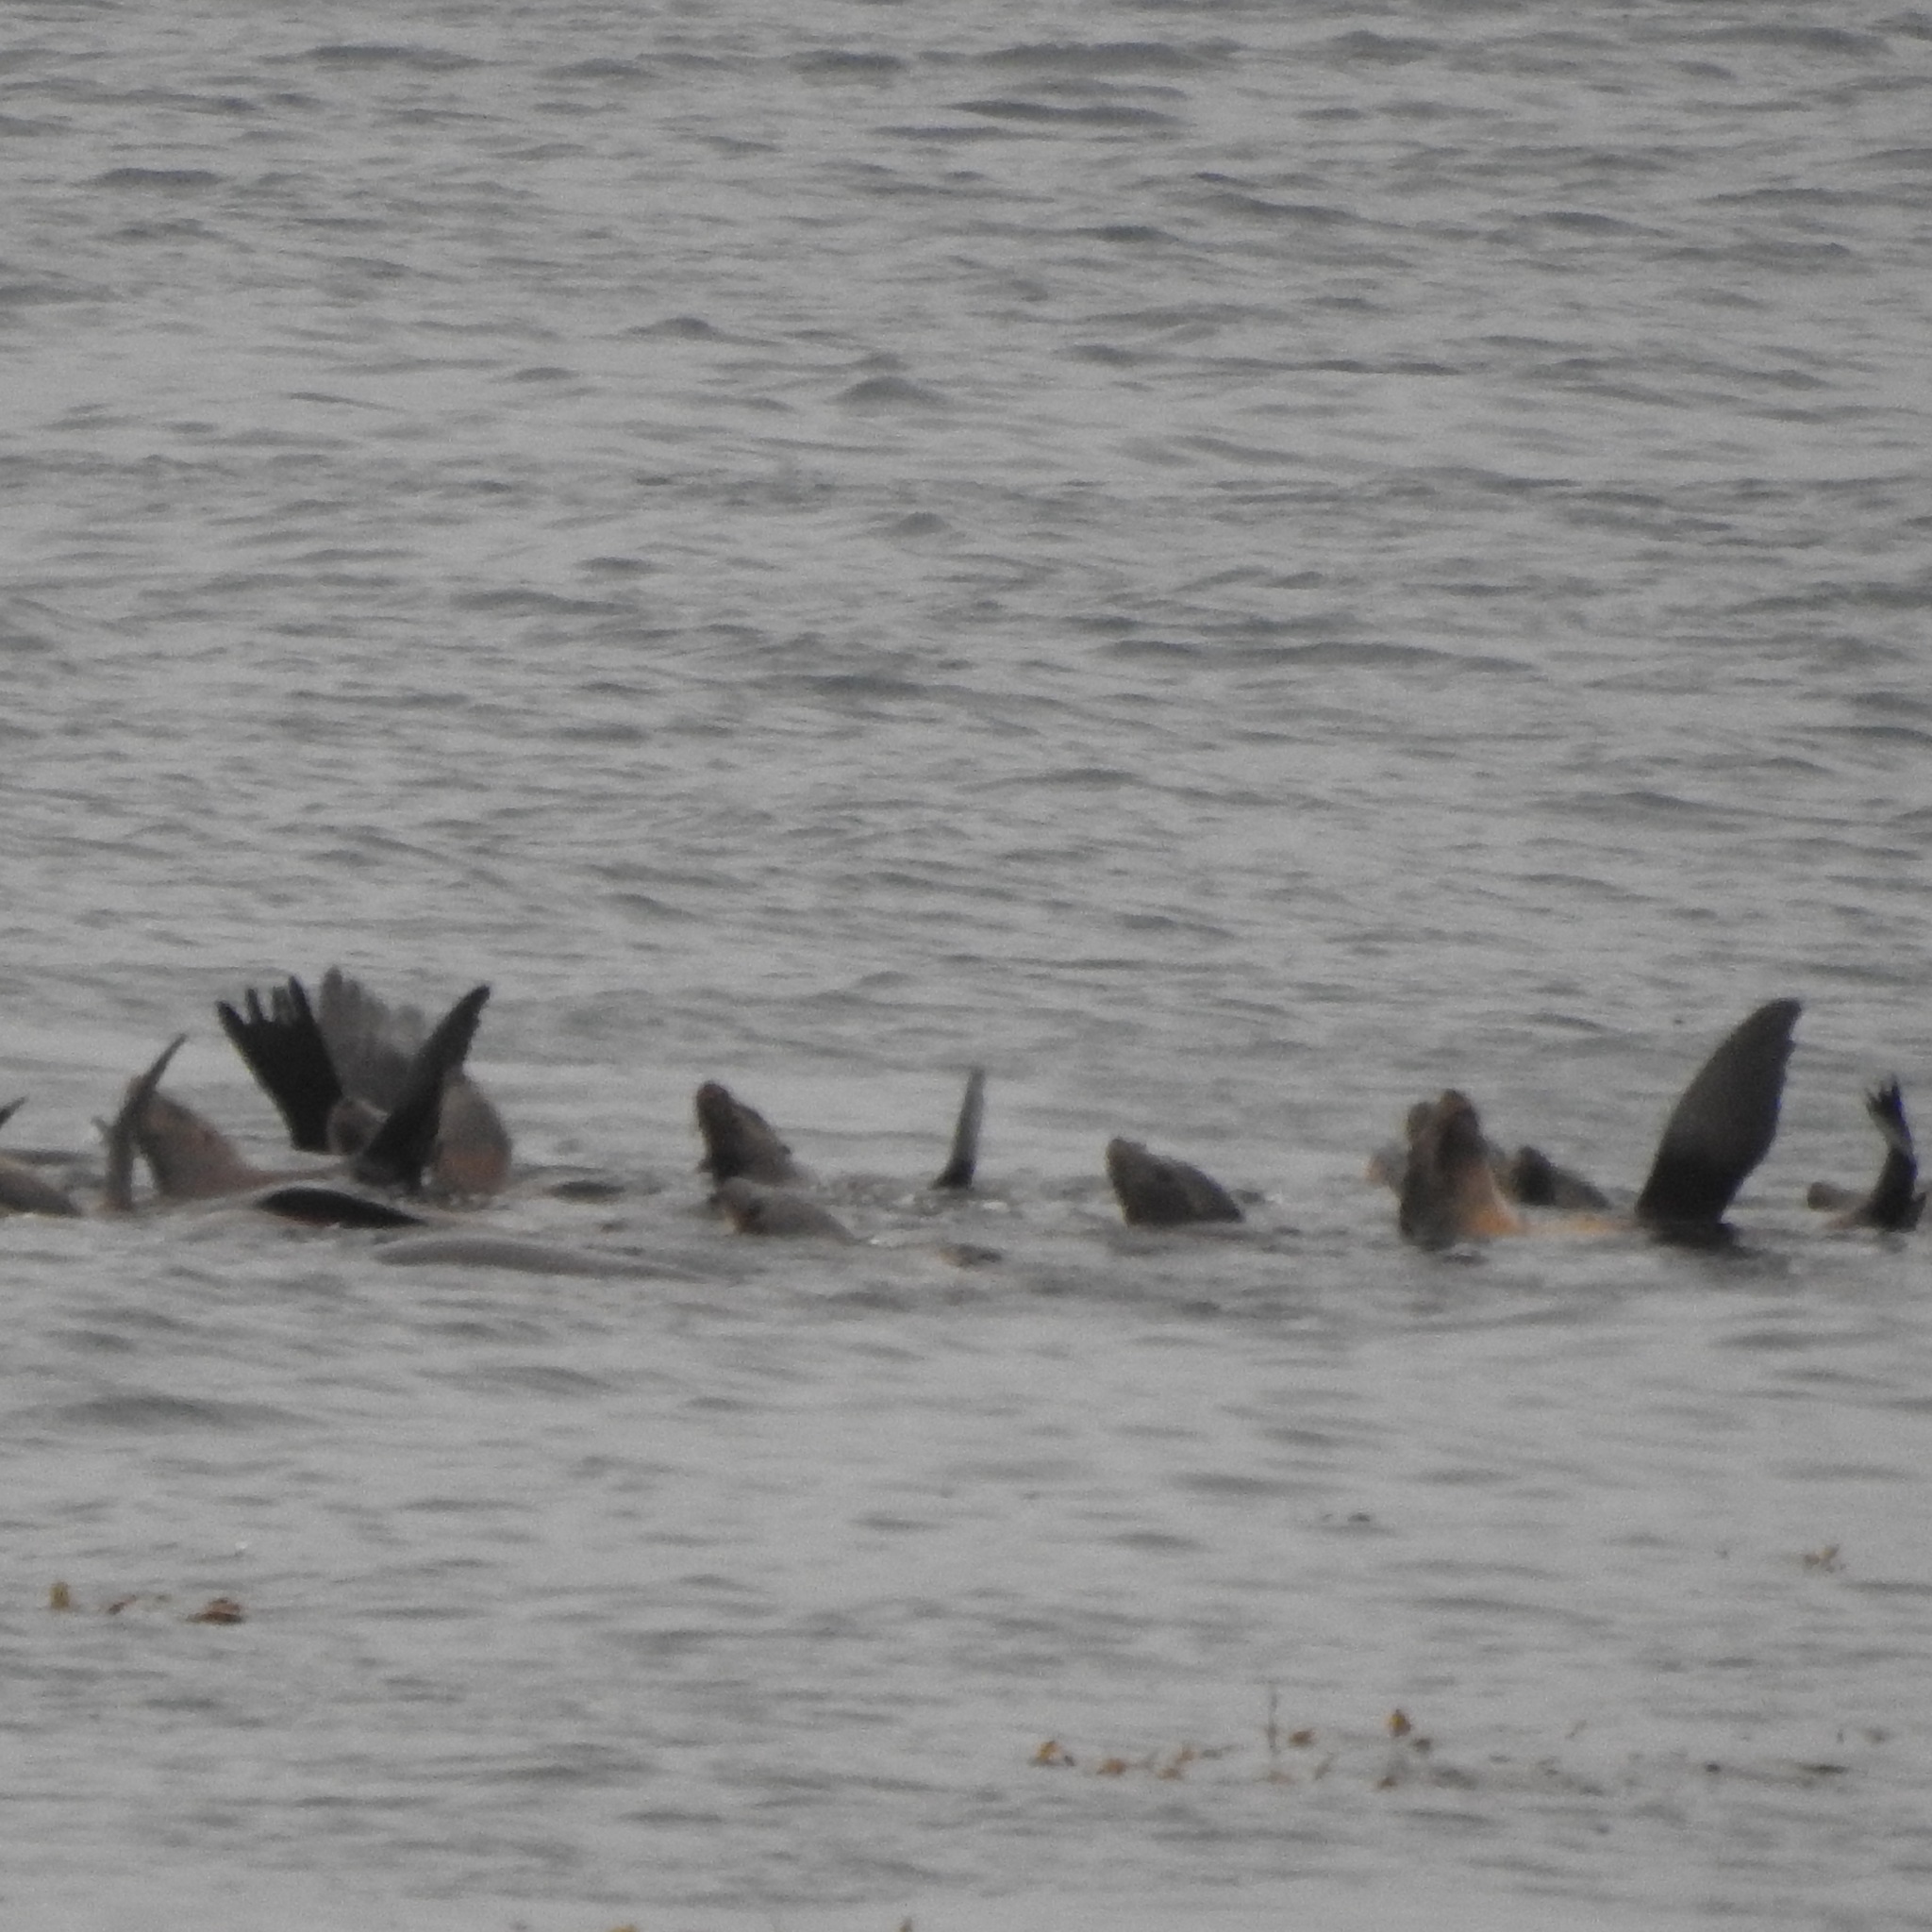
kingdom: Animalia
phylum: Chordata
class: Mammalia
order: Carnivora
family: Otariidae
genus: Zalophus
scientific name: Zalophus californianus
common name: California sea lion
